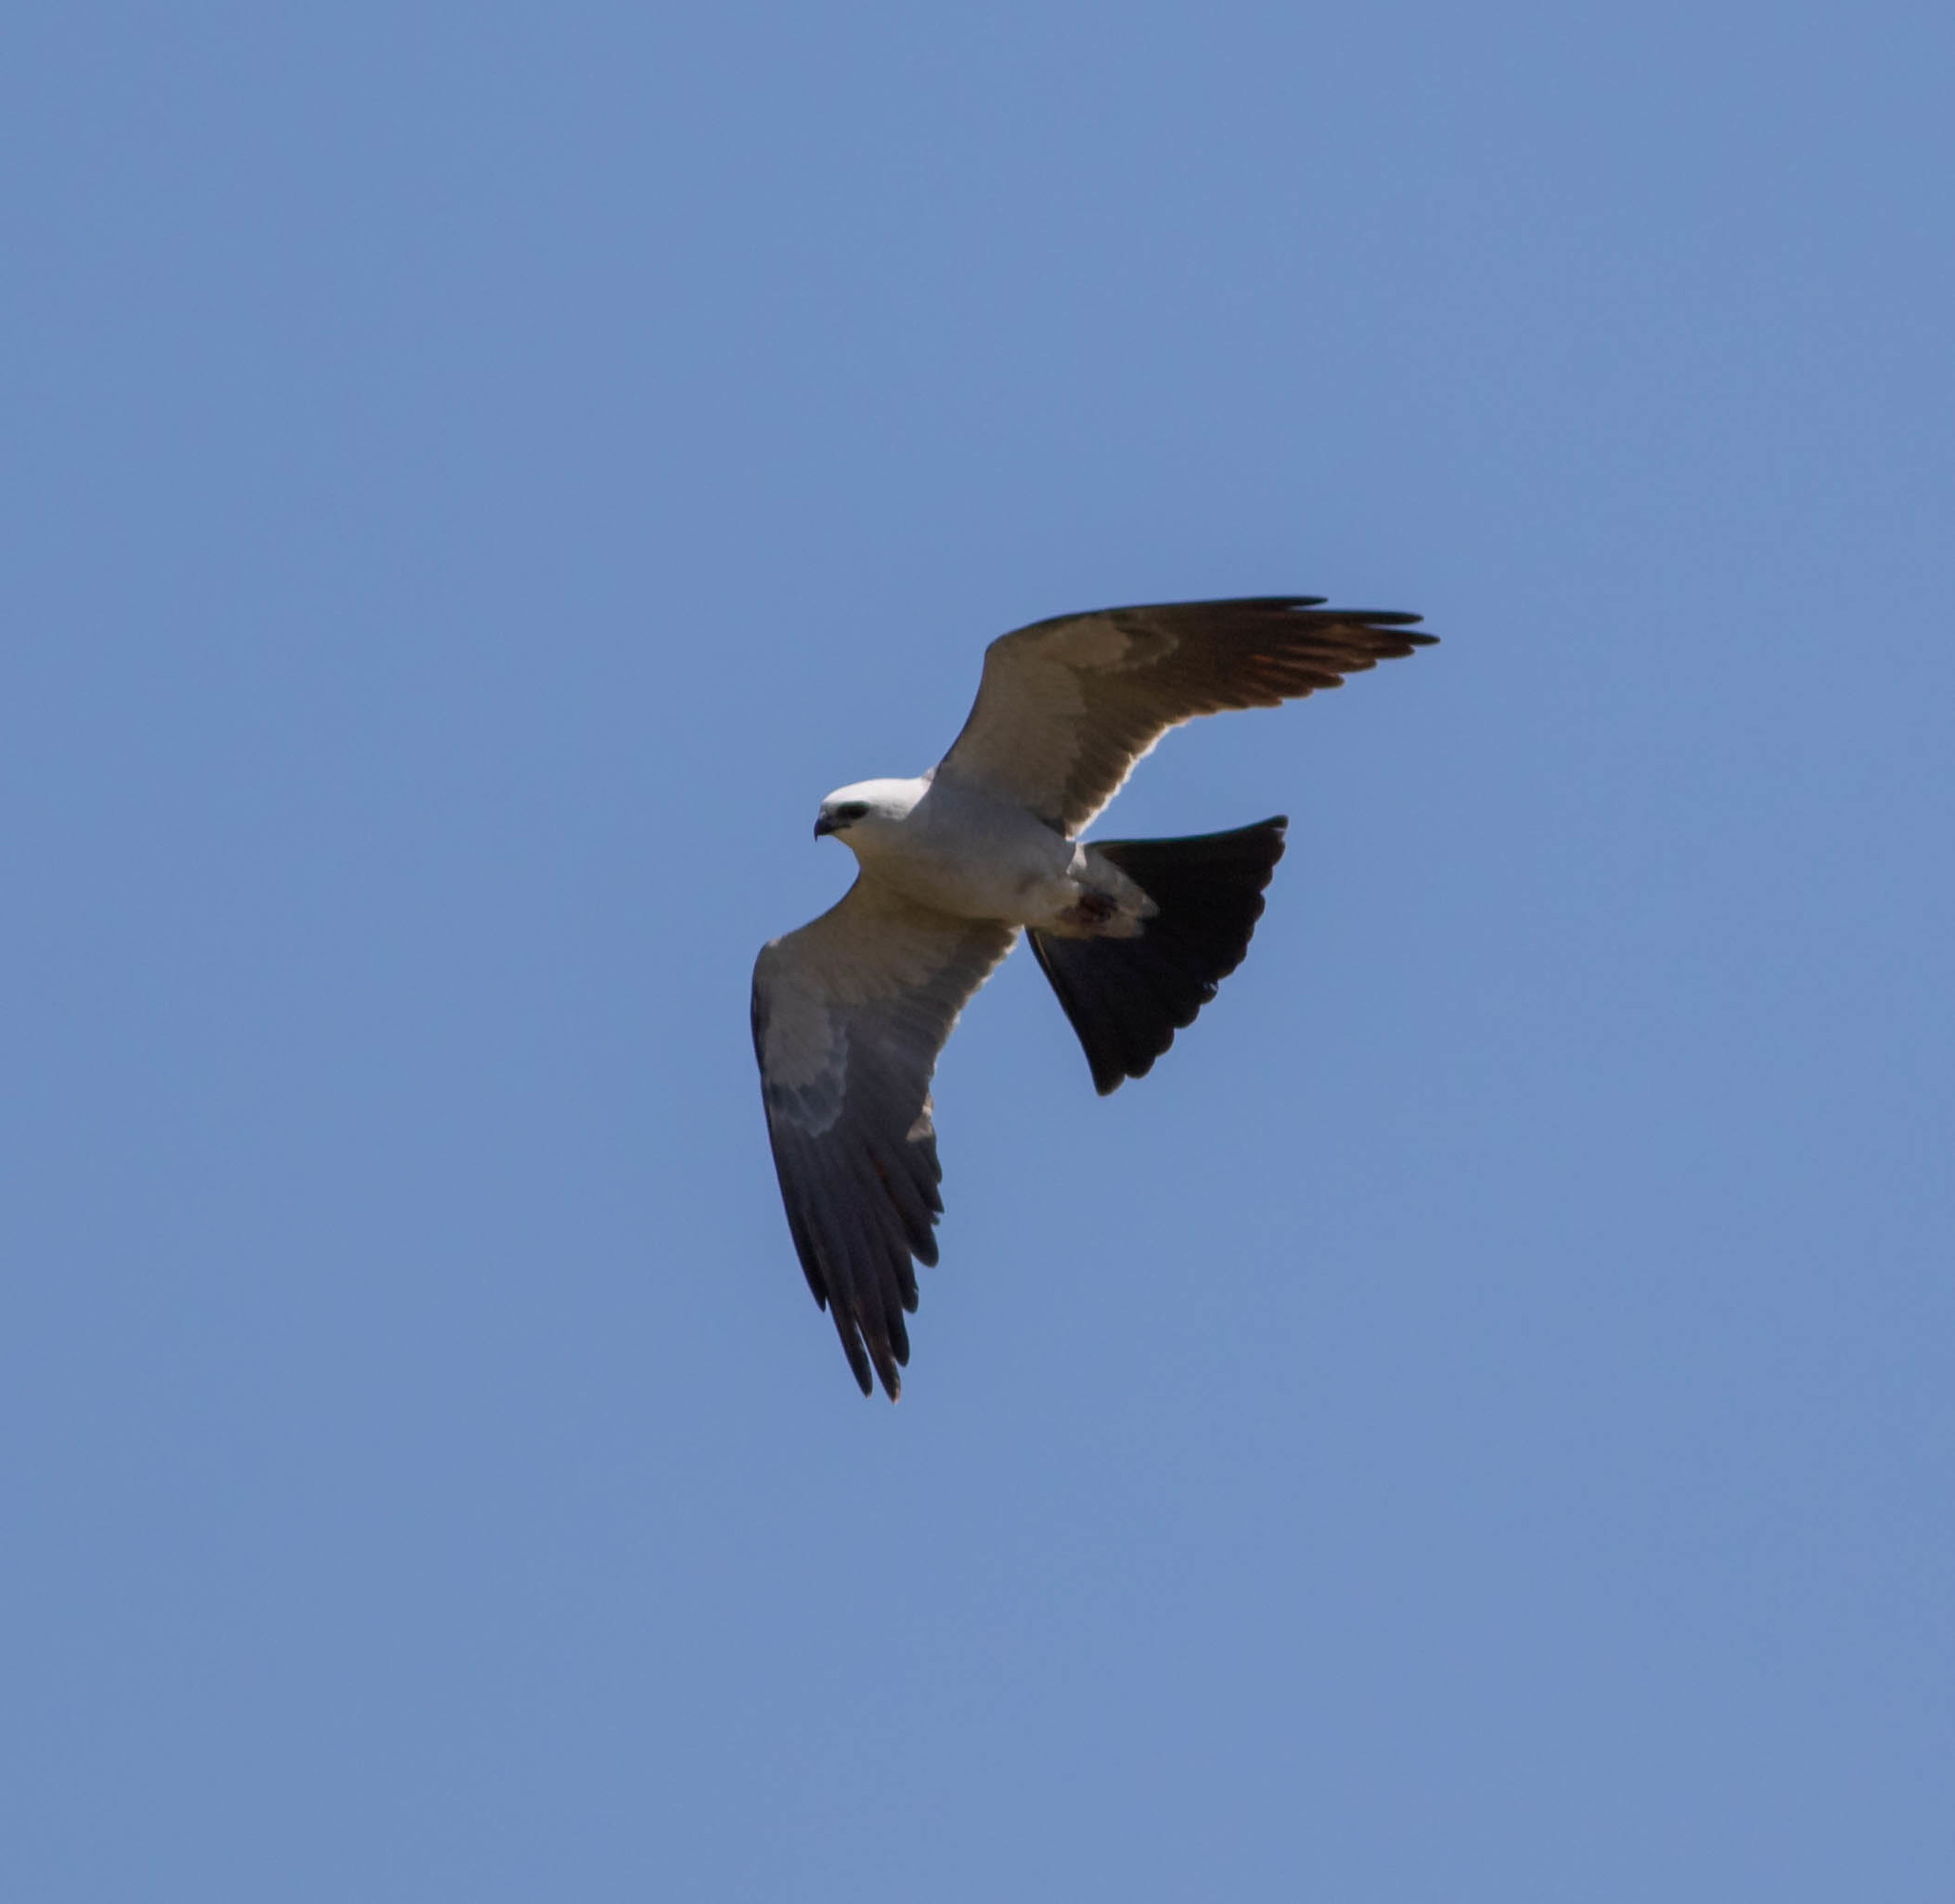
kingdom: Animalia
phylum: Chordata
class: Aves
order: Accipitriformes
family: Accipitridae
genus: Ictinia
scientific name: Ictinia mississippiensis
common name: Mississippi kite
